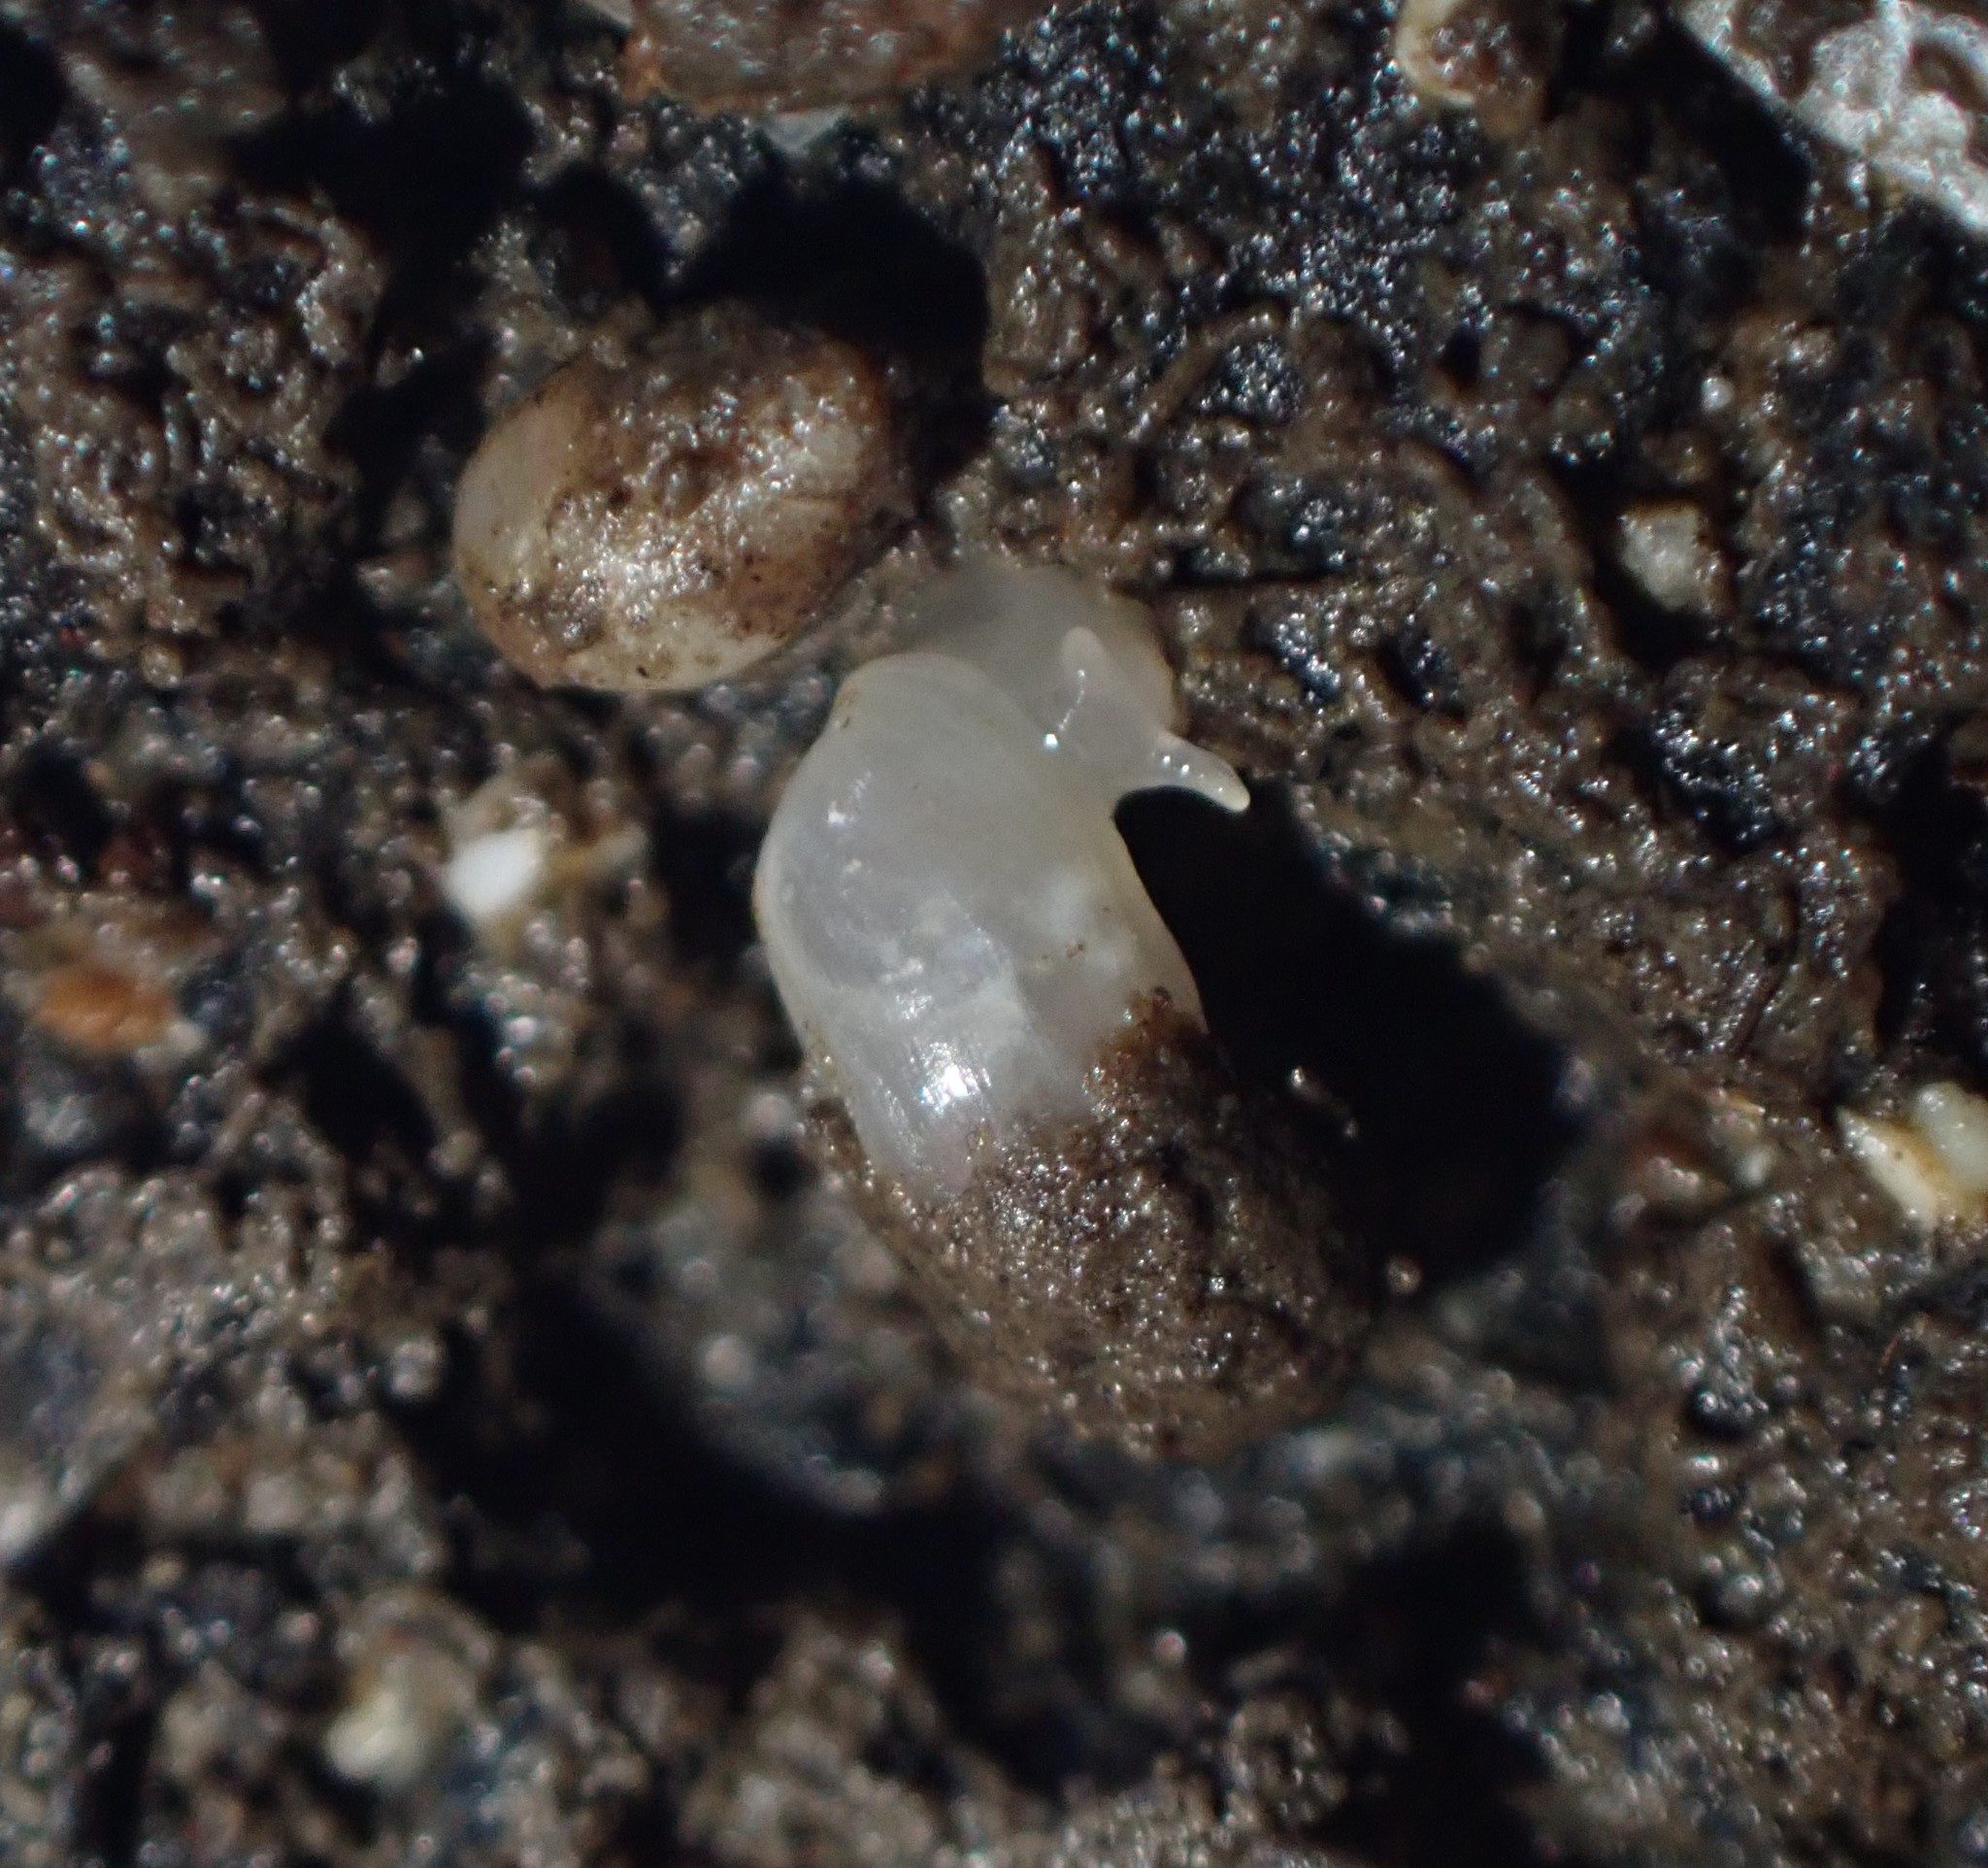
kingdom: Animalia
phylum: Mollusca
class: Gastropoda
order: Ellobiida
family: Ellobiidae
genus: Microtralia
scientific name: Microtralia insularis
